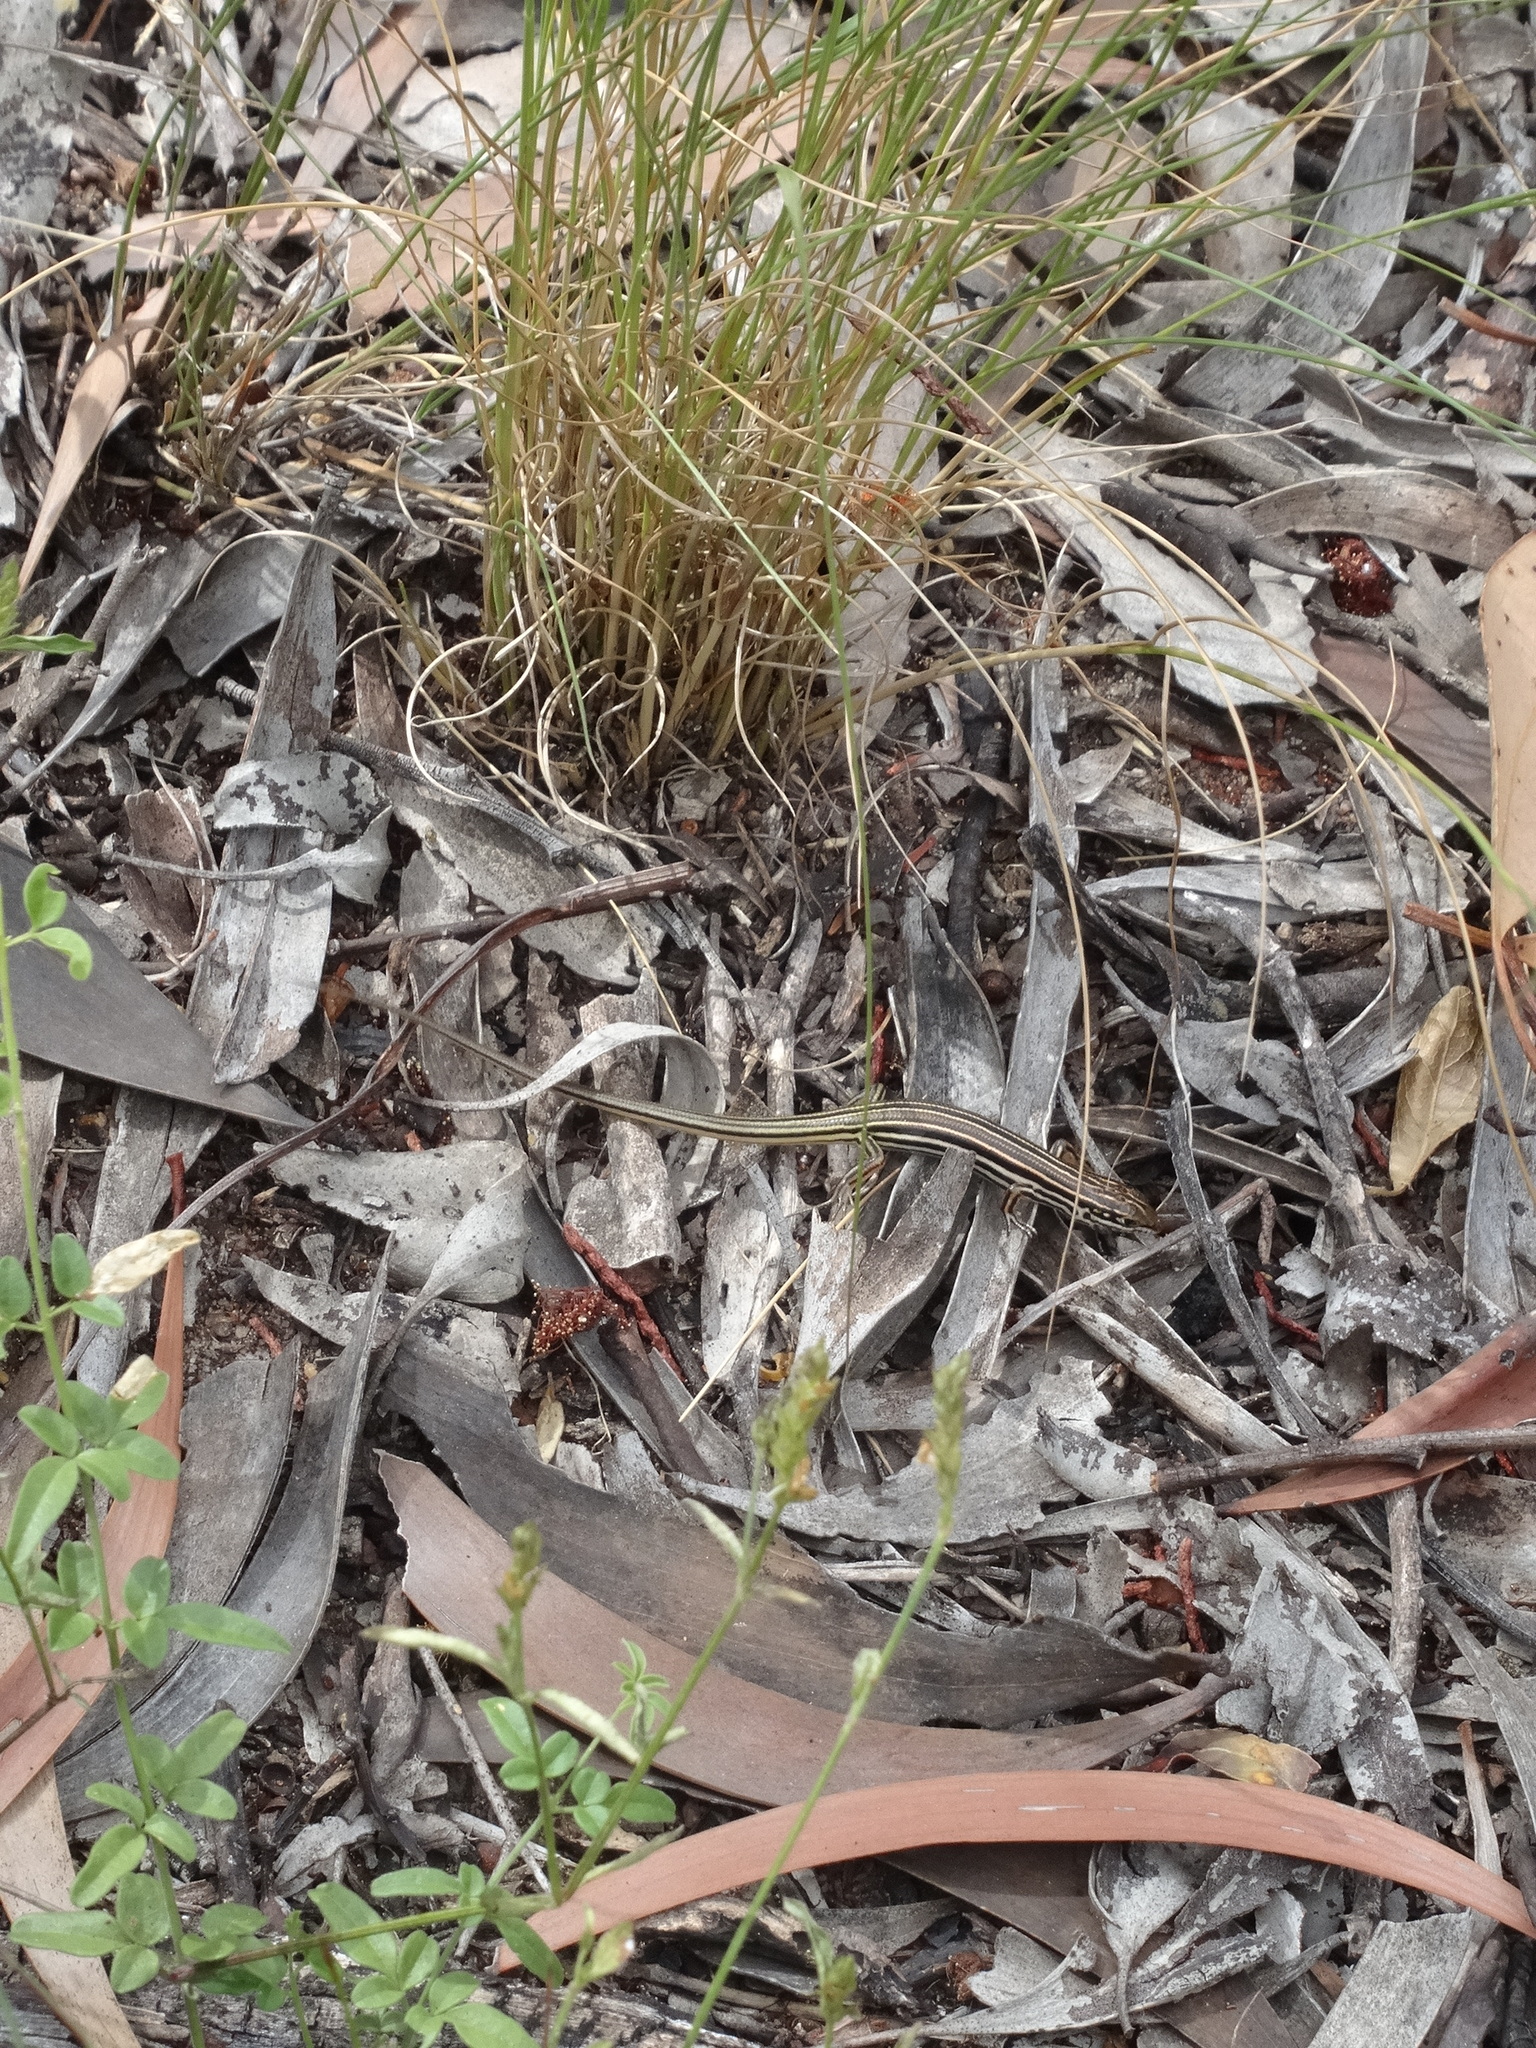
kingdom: Animalia
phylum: Chordata
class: Squamata
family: Scincidae
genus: Ctenotus
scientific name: Ctenotus taeniolatus
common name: Copper-tailed skink
